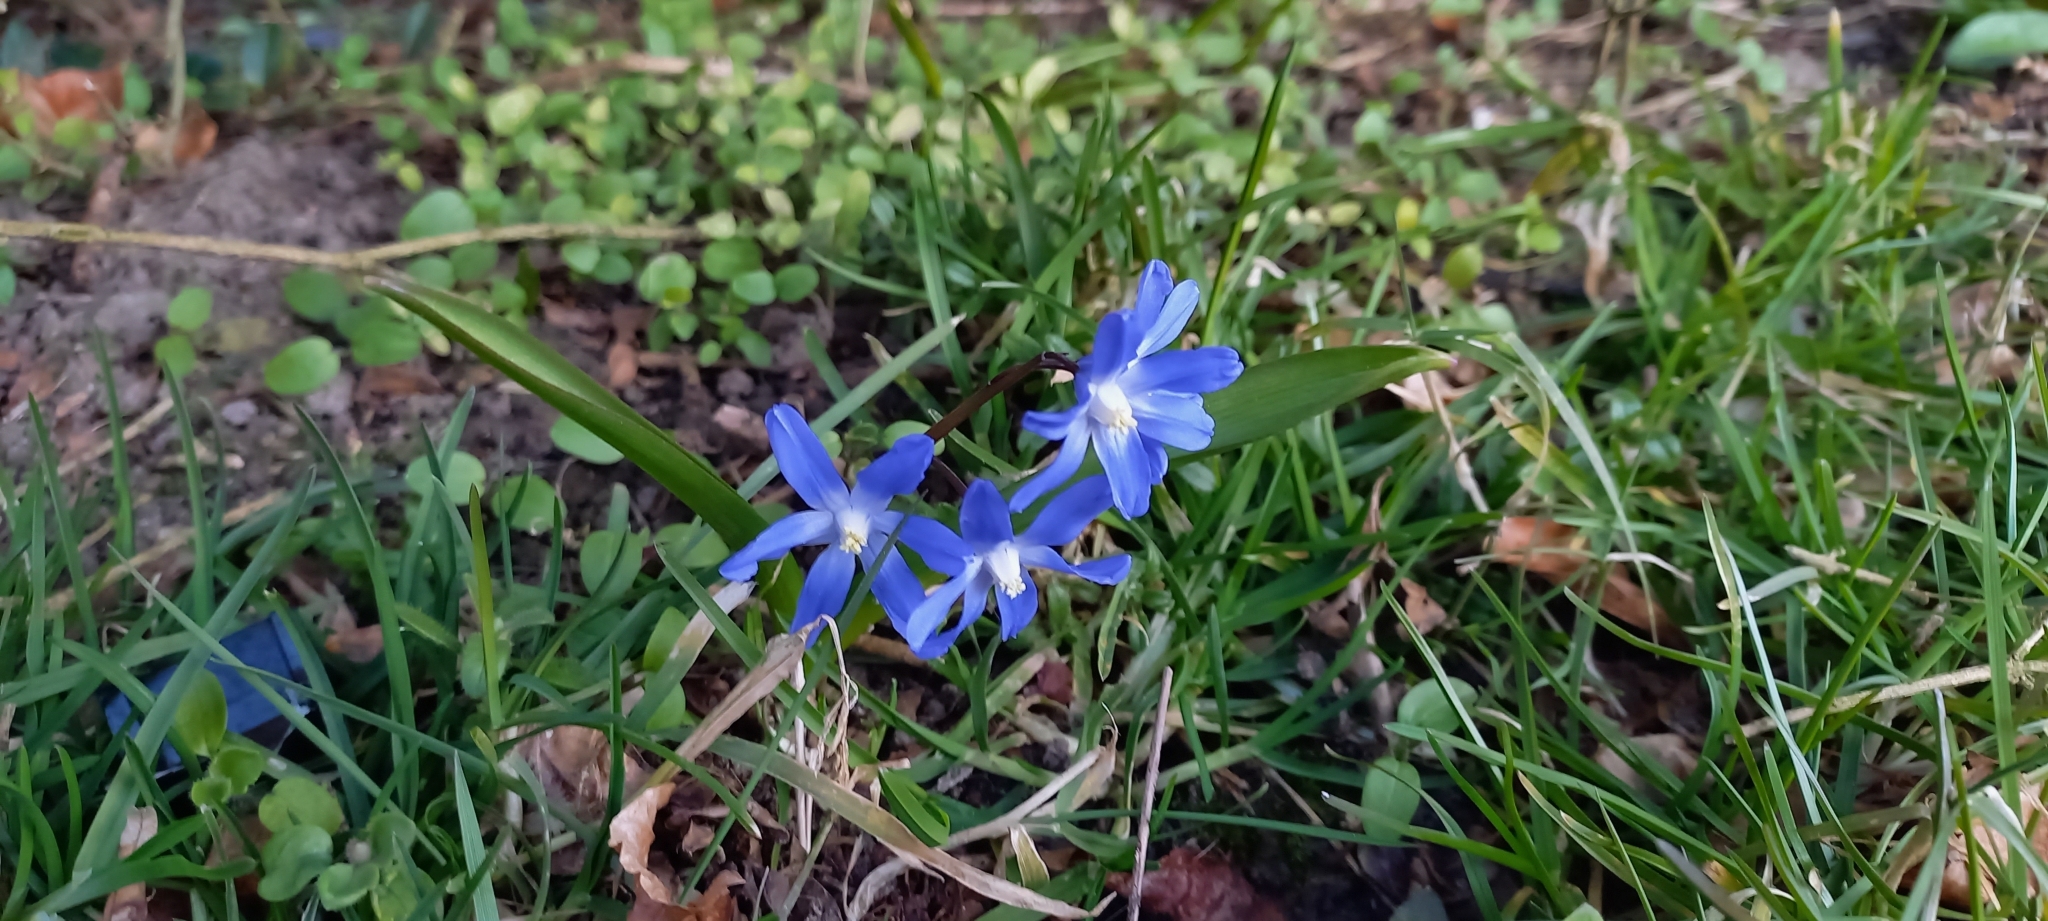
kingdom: Plantae
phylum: Tracheophyta
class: Liliopsida
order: Asparagales
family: Asparagaceae
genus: Scilla
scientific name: Scilla forbesii
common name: Glory-of-the-snow
